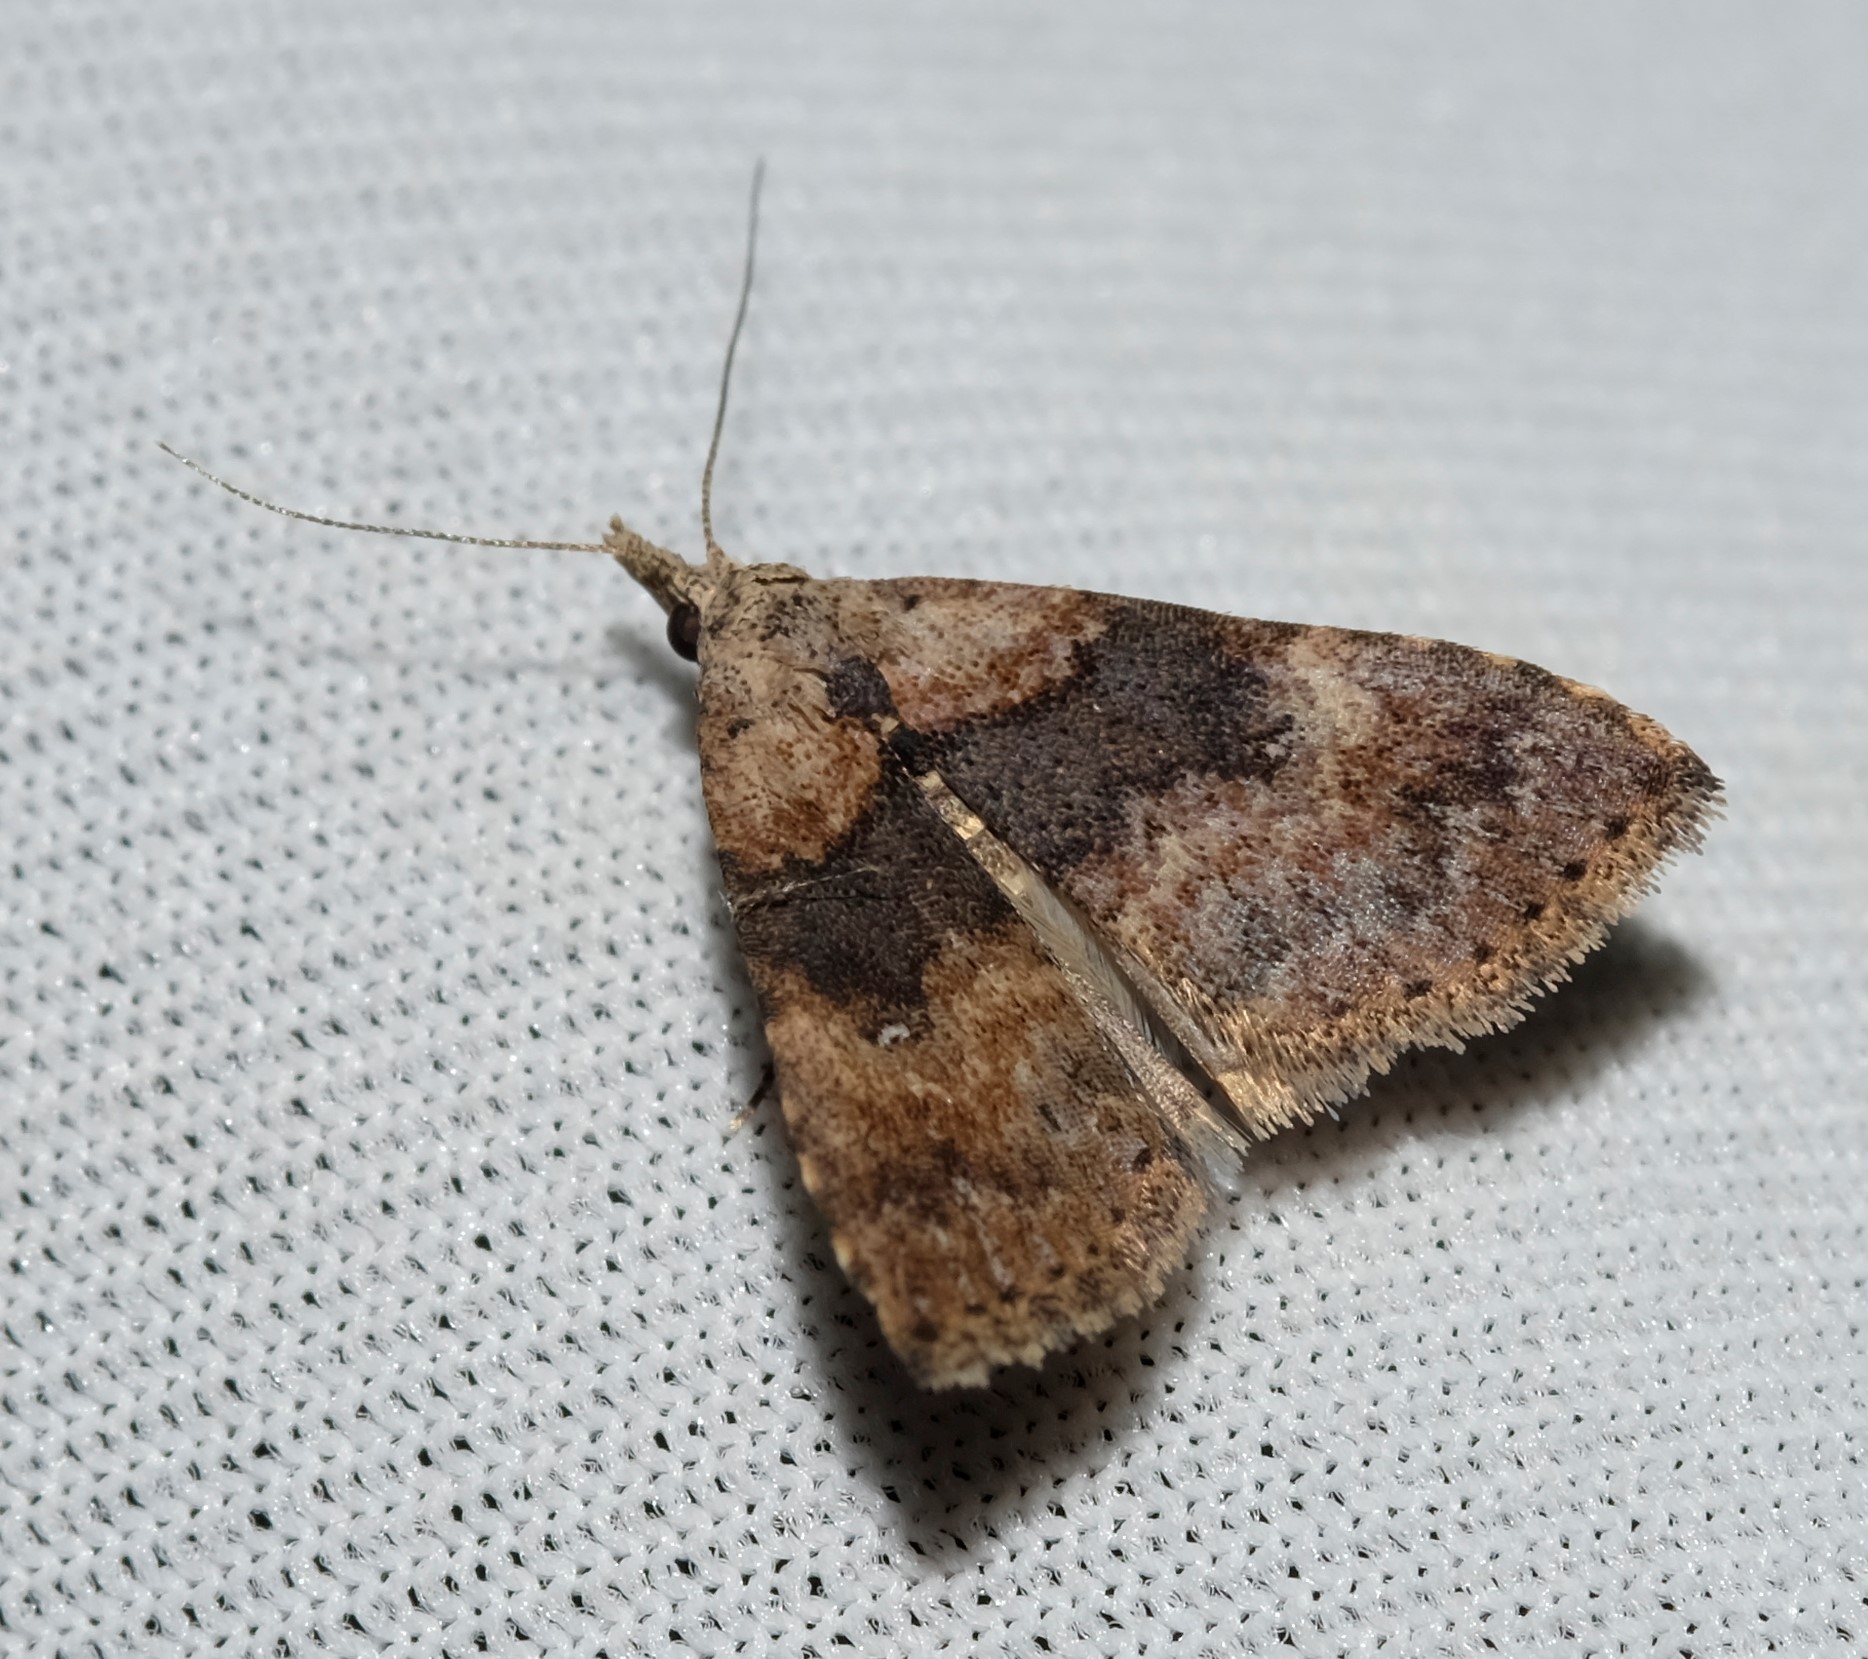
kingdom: Animalia
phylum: Arthropoda
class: Insecta
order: Lepidoptera
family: Erebidae
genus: Alapadna
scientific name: Alapadna pauropis
